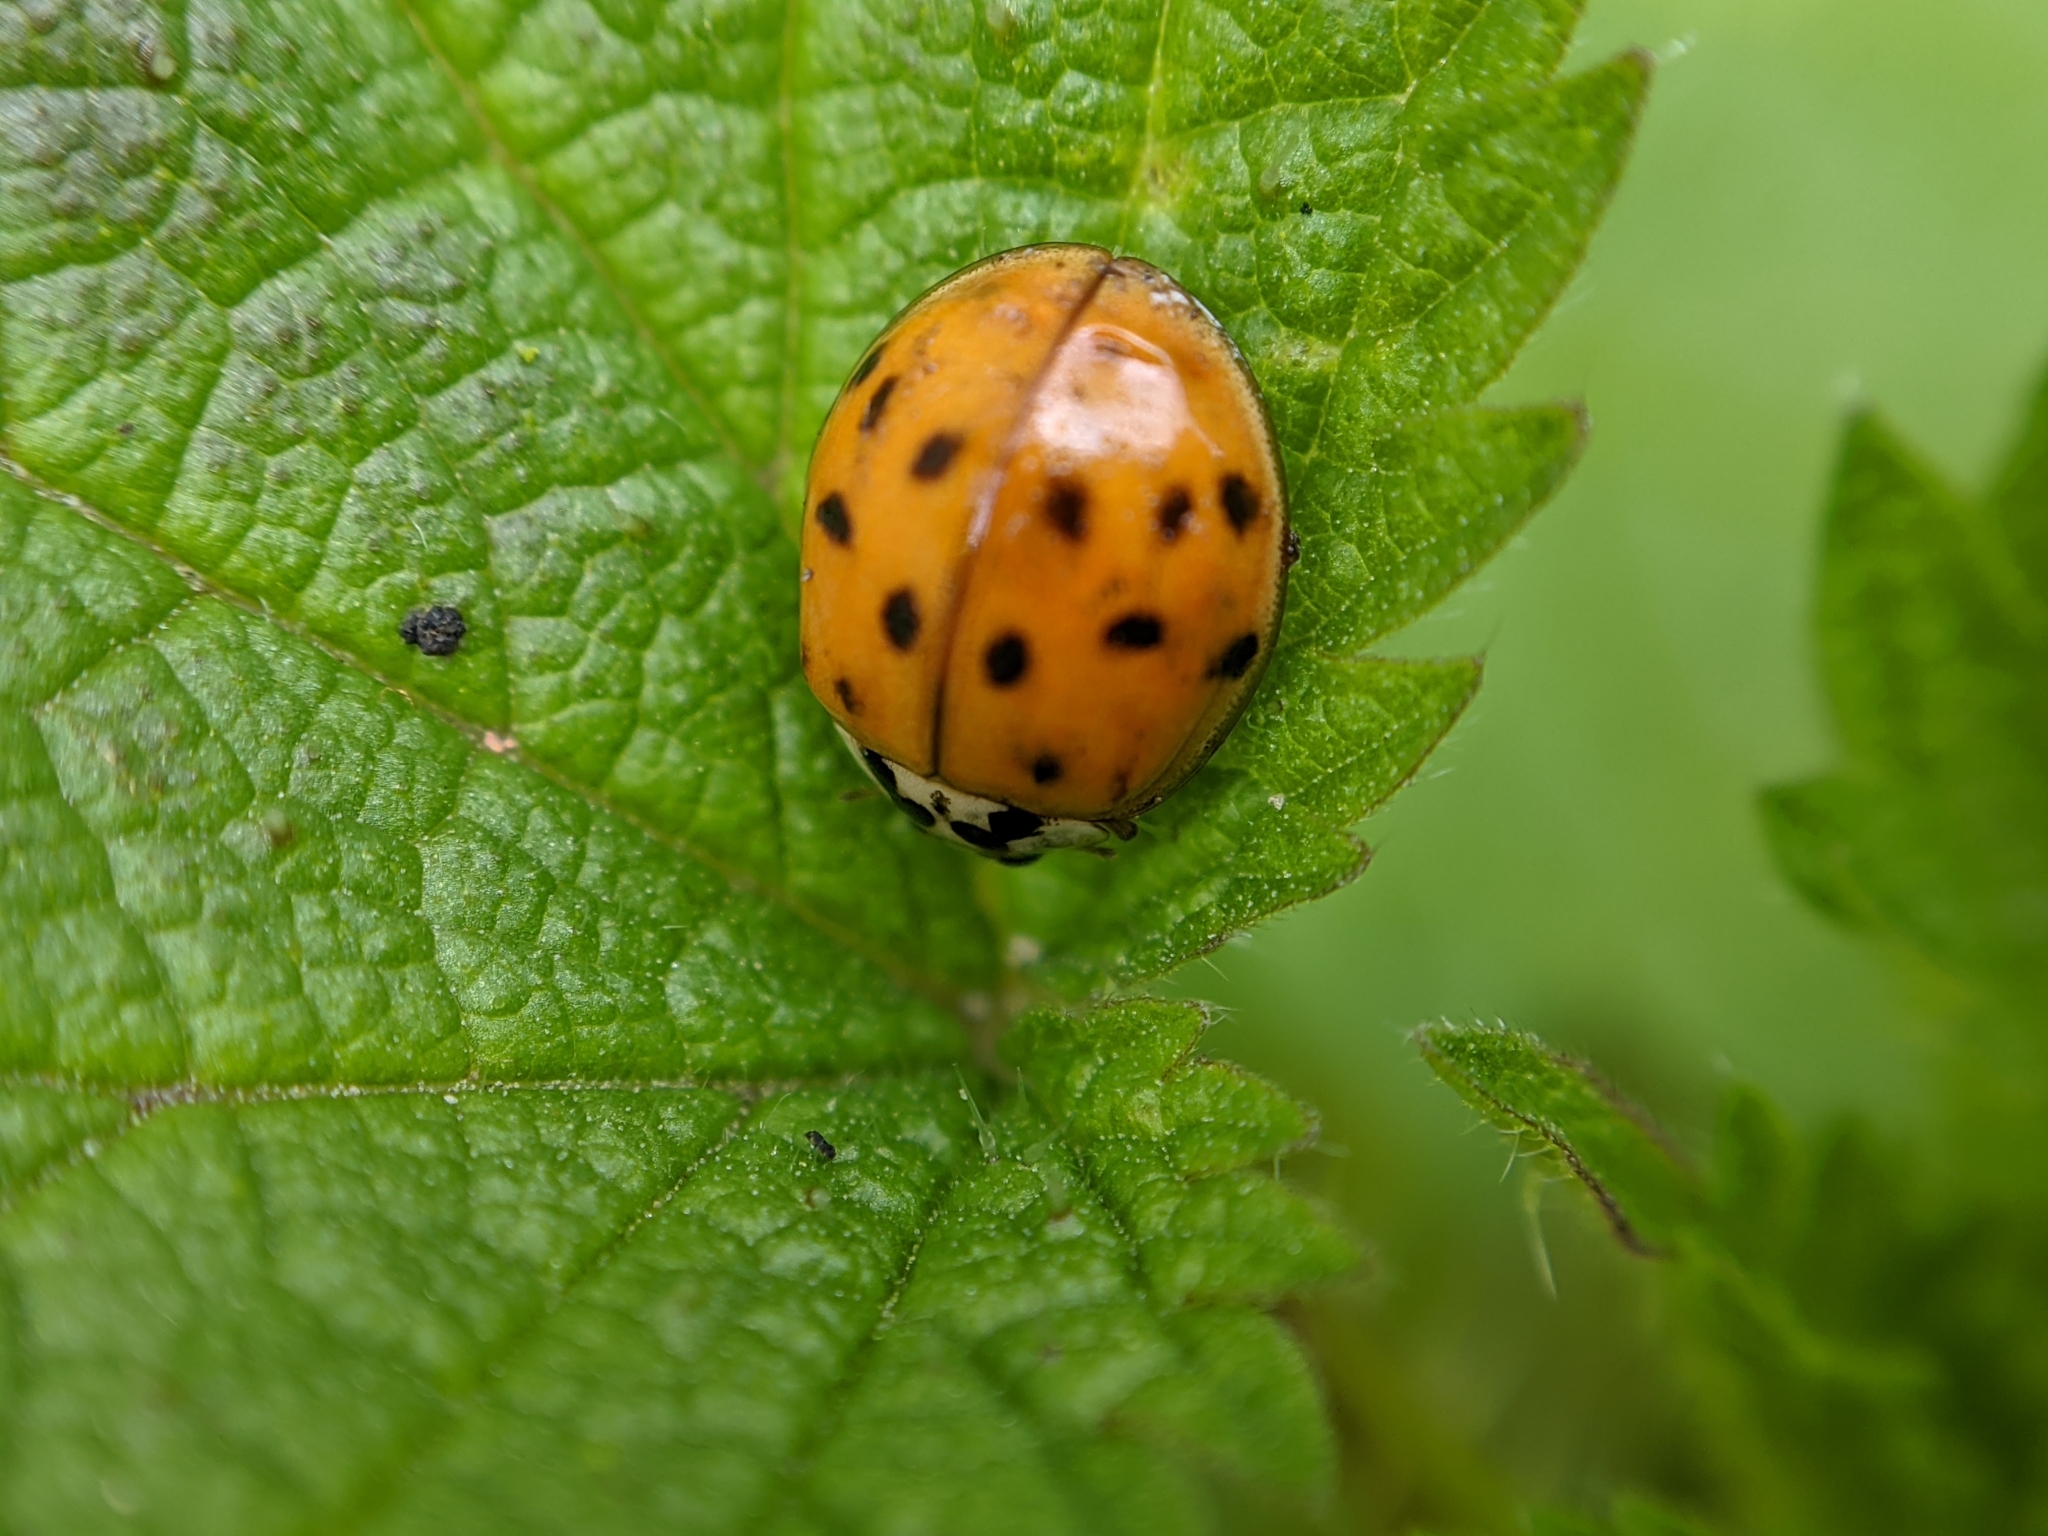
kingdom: Animalia
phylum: Arthropoda
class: Insecta
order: Coleoptera
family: Coccinellidae
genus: Harmonia
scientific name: Harmonia axyridis
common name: Harlequin ladybird
